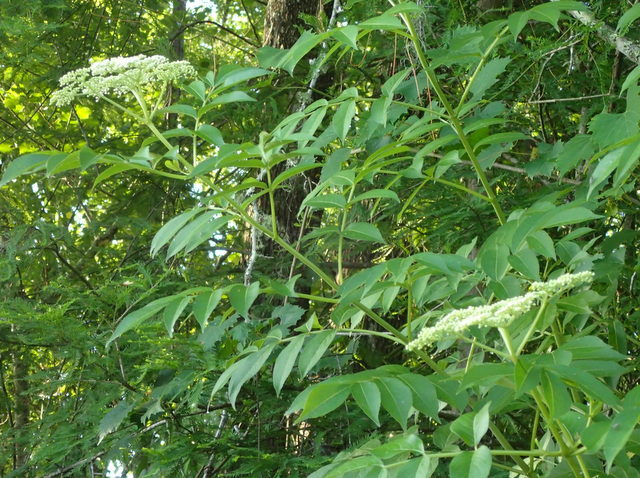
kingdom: Plantae
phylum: Tracheophyta
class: Magnoliopsida
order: Dipsacales
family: Viburnaceae
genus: Sambucus
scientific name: Sambucus canadensis
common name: American elder
